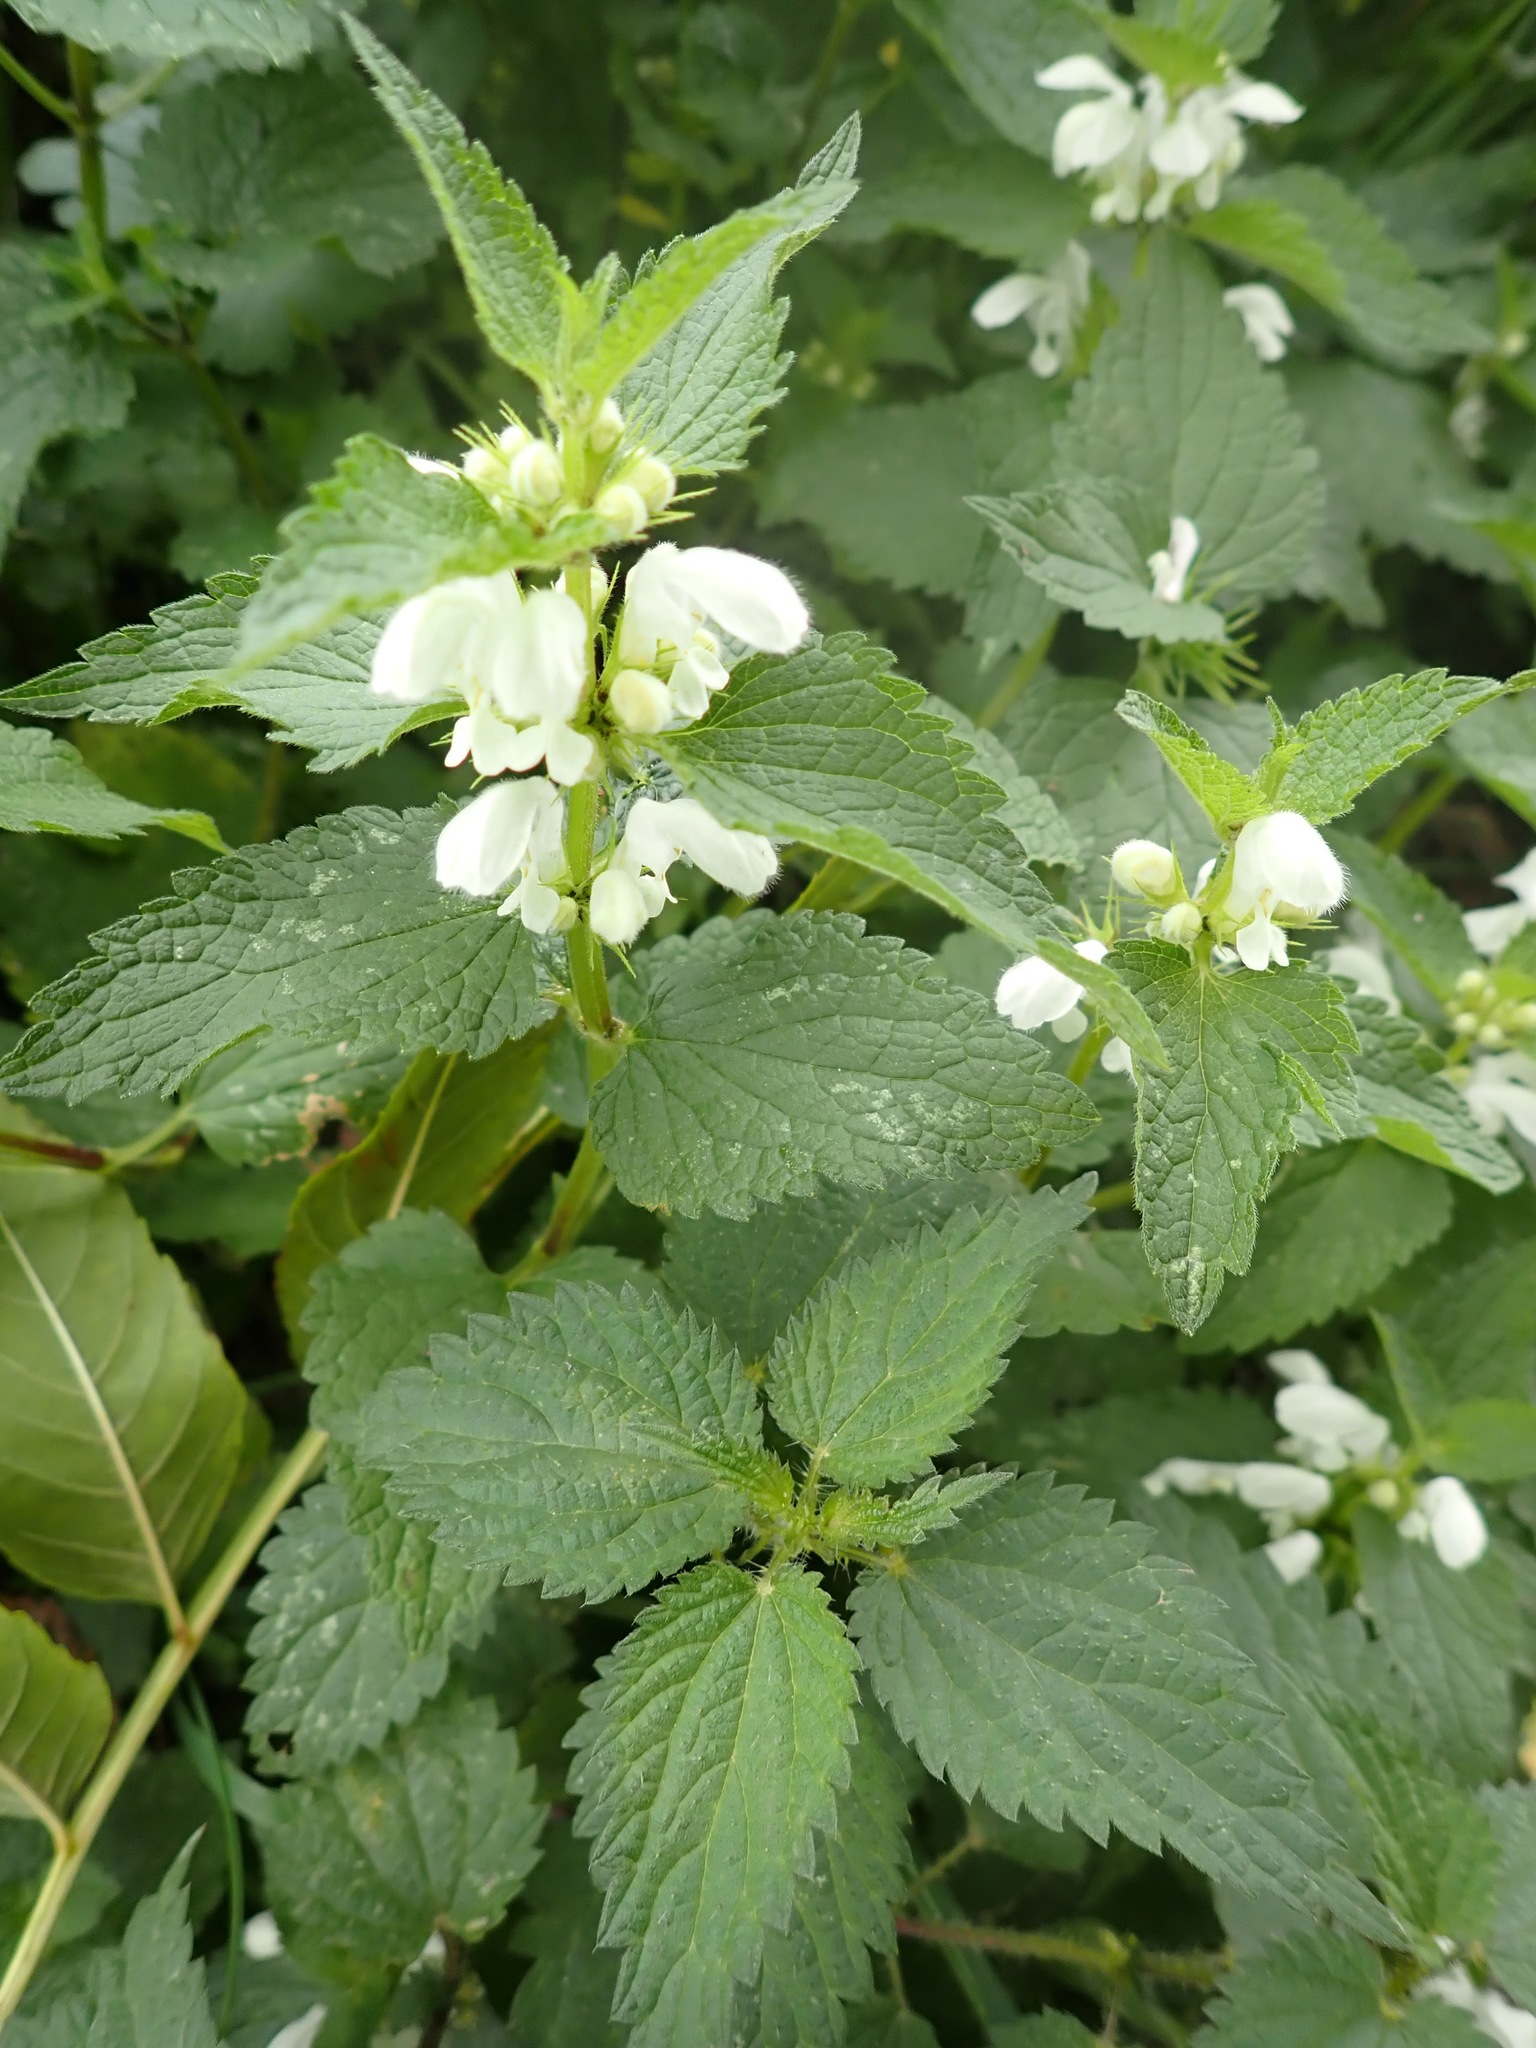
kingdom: Plantae
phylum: Tracheophyta
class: Magnoliopsida
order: Lamiales
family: Lamiaceae
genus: Lamium
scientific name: Lamium album
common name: White dead-nettle
